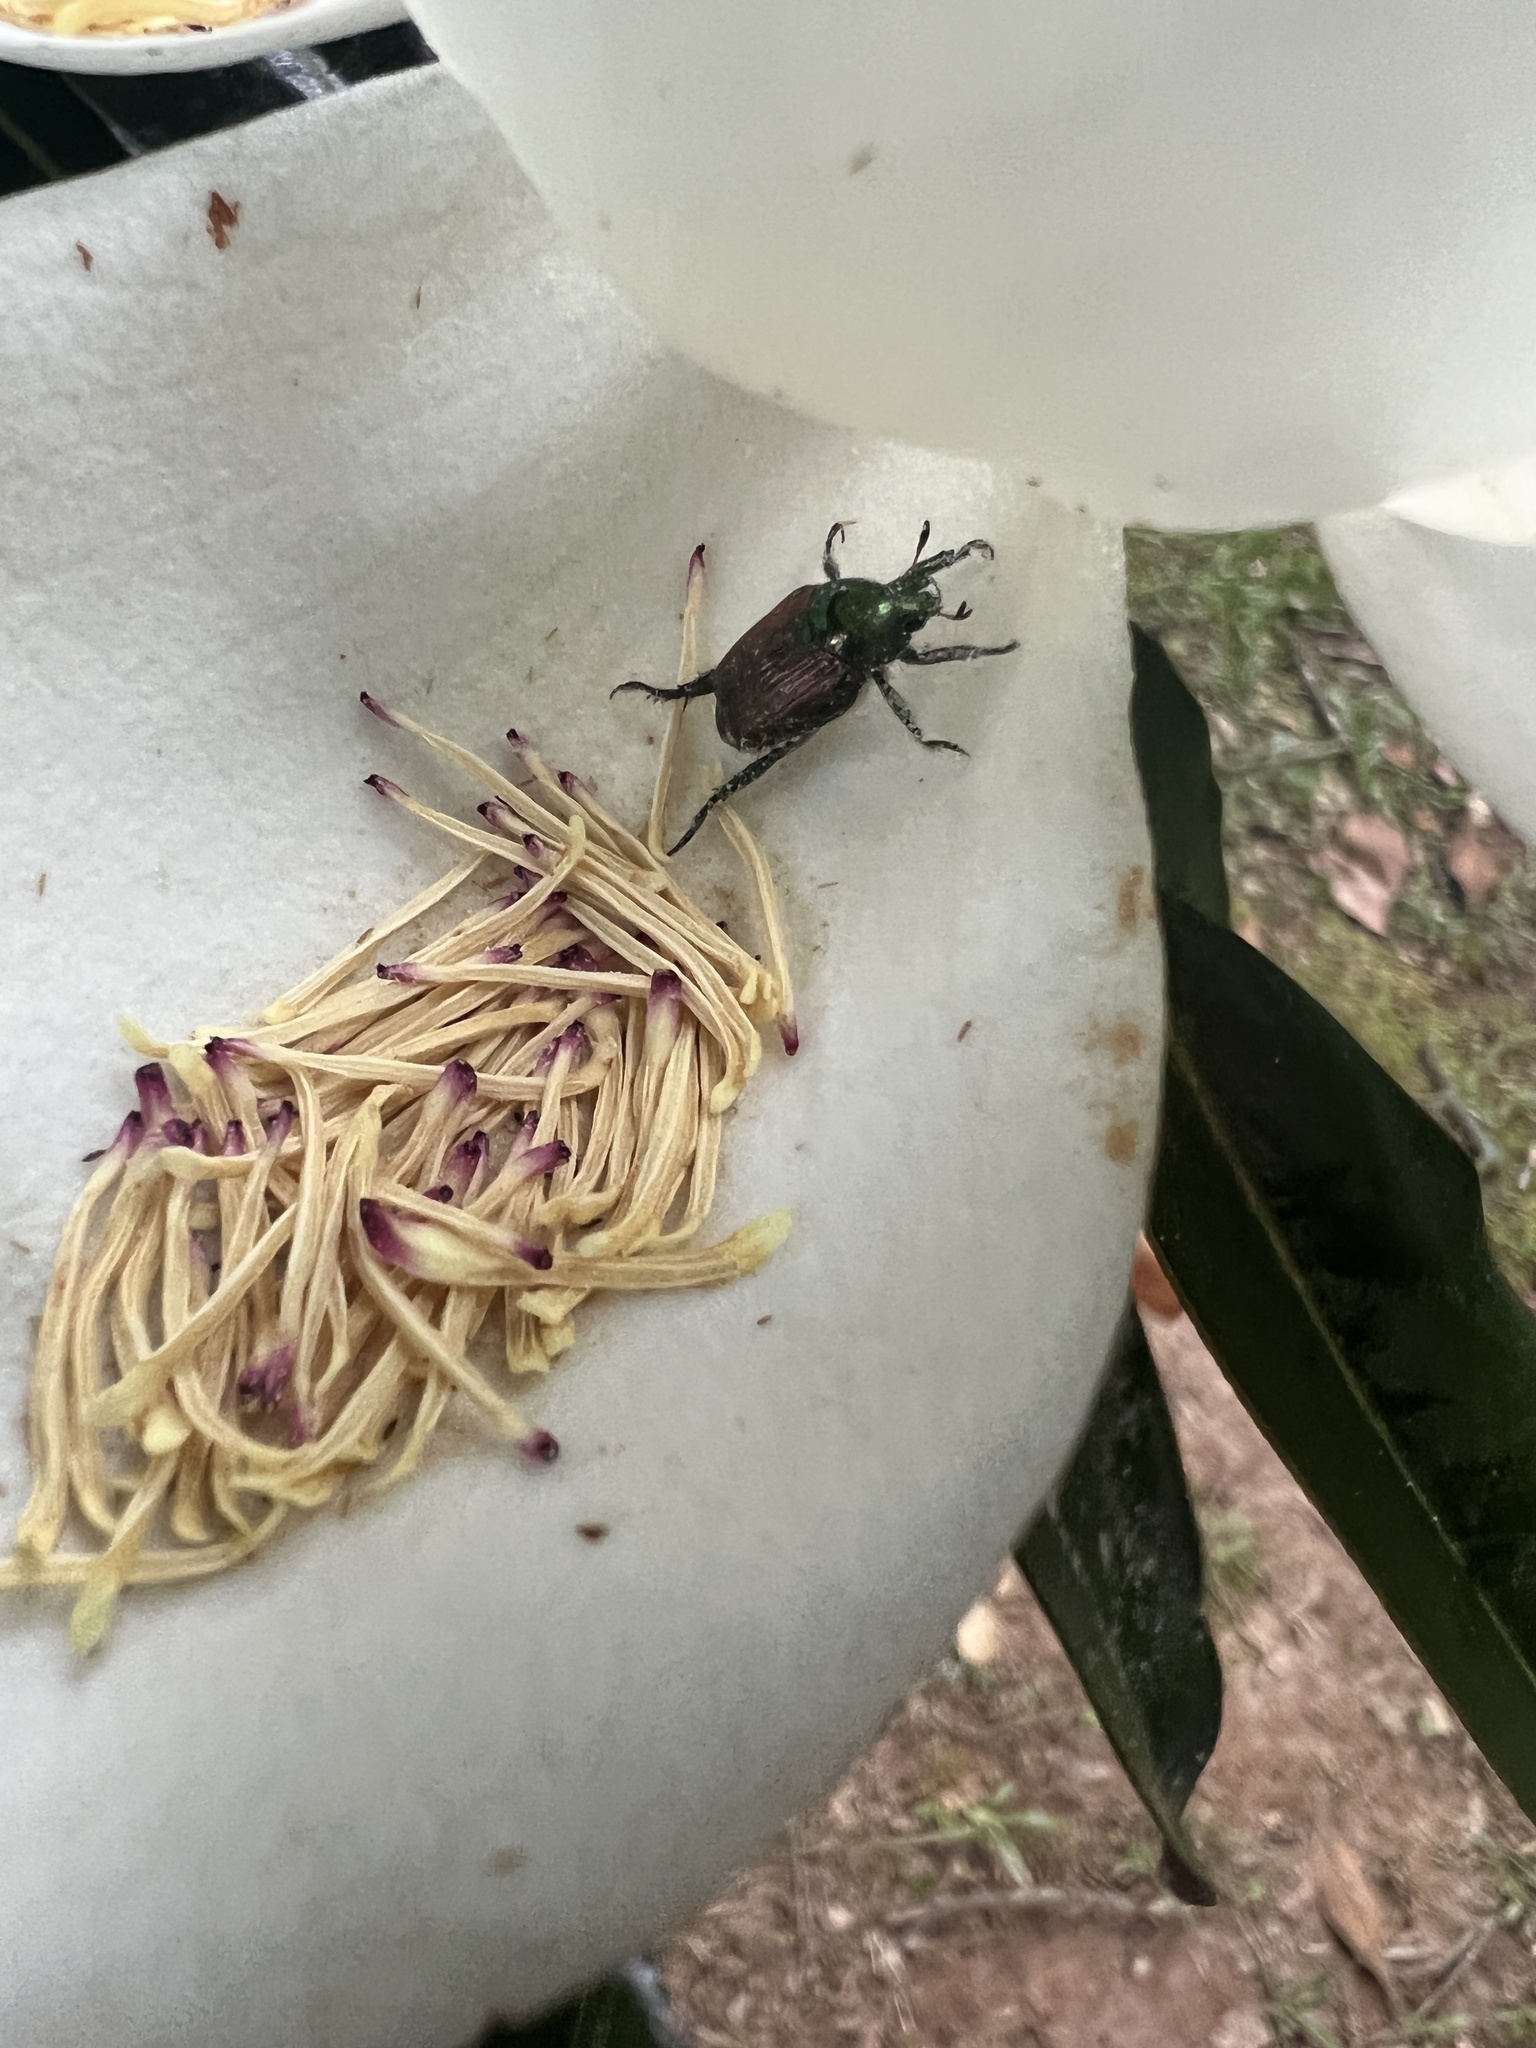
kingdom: Animalia
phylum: Arthropoda
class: Insecta
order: Coleoptera
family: Scarabaeidae
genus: Popillia
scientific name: Popillia japonica
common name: Japanese beetle
